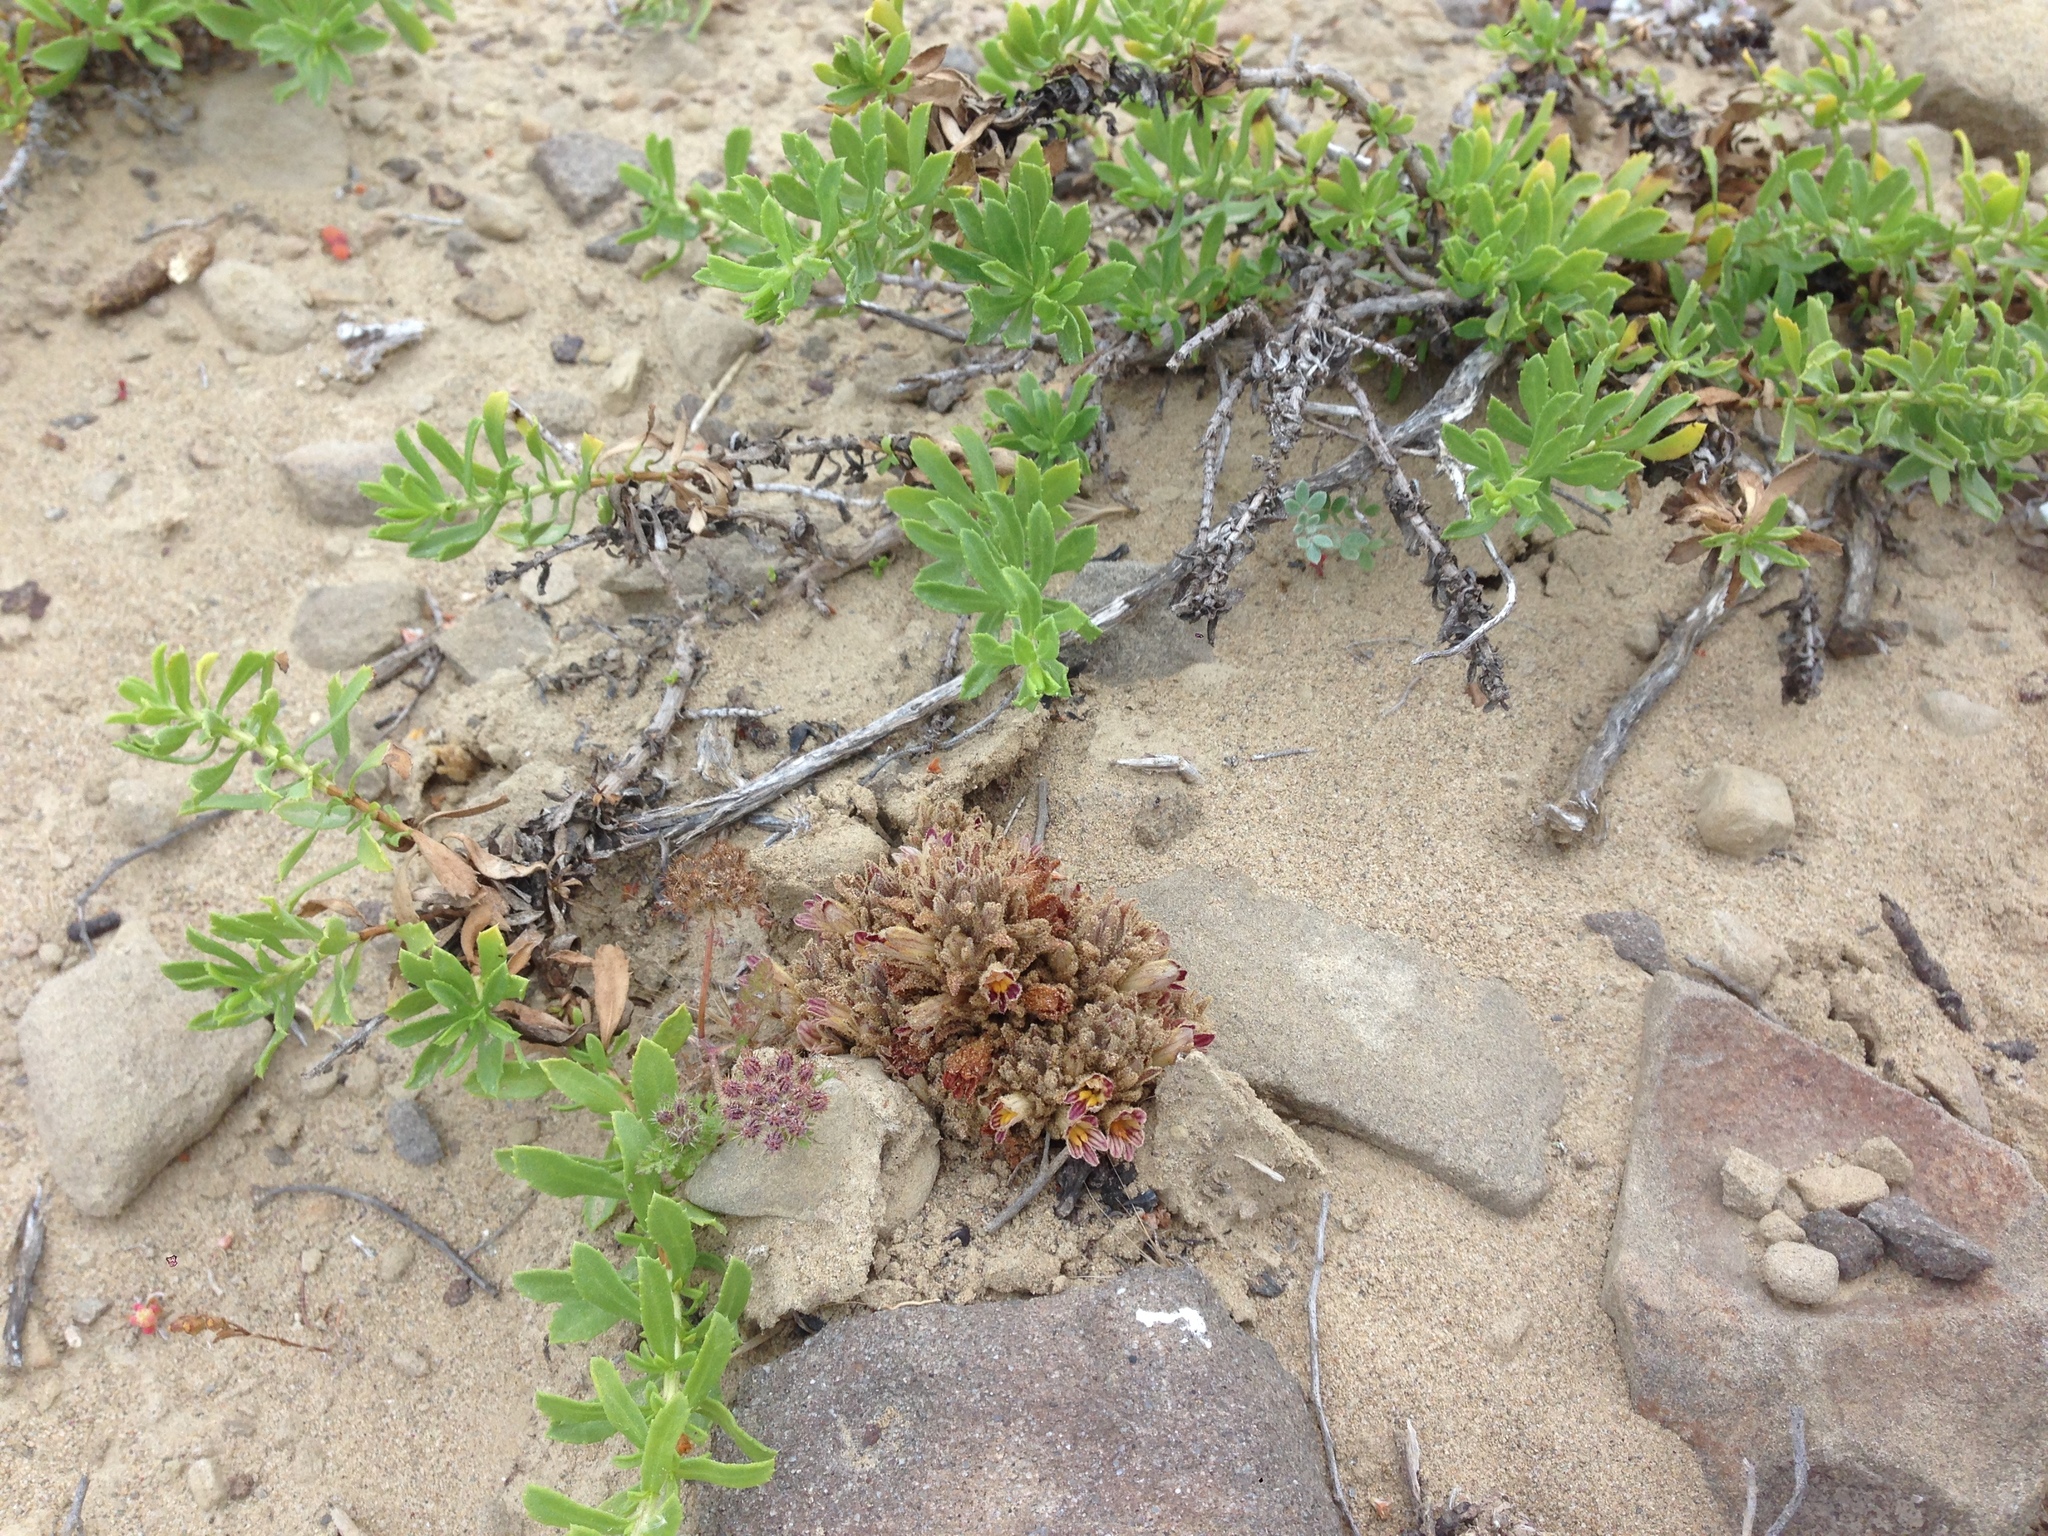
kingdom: Plantae
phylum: Tracheophyta
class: Magnoliopsida
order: Asterales
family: Asteraceae
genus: Isocoma
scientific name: Isocoma menziesii
